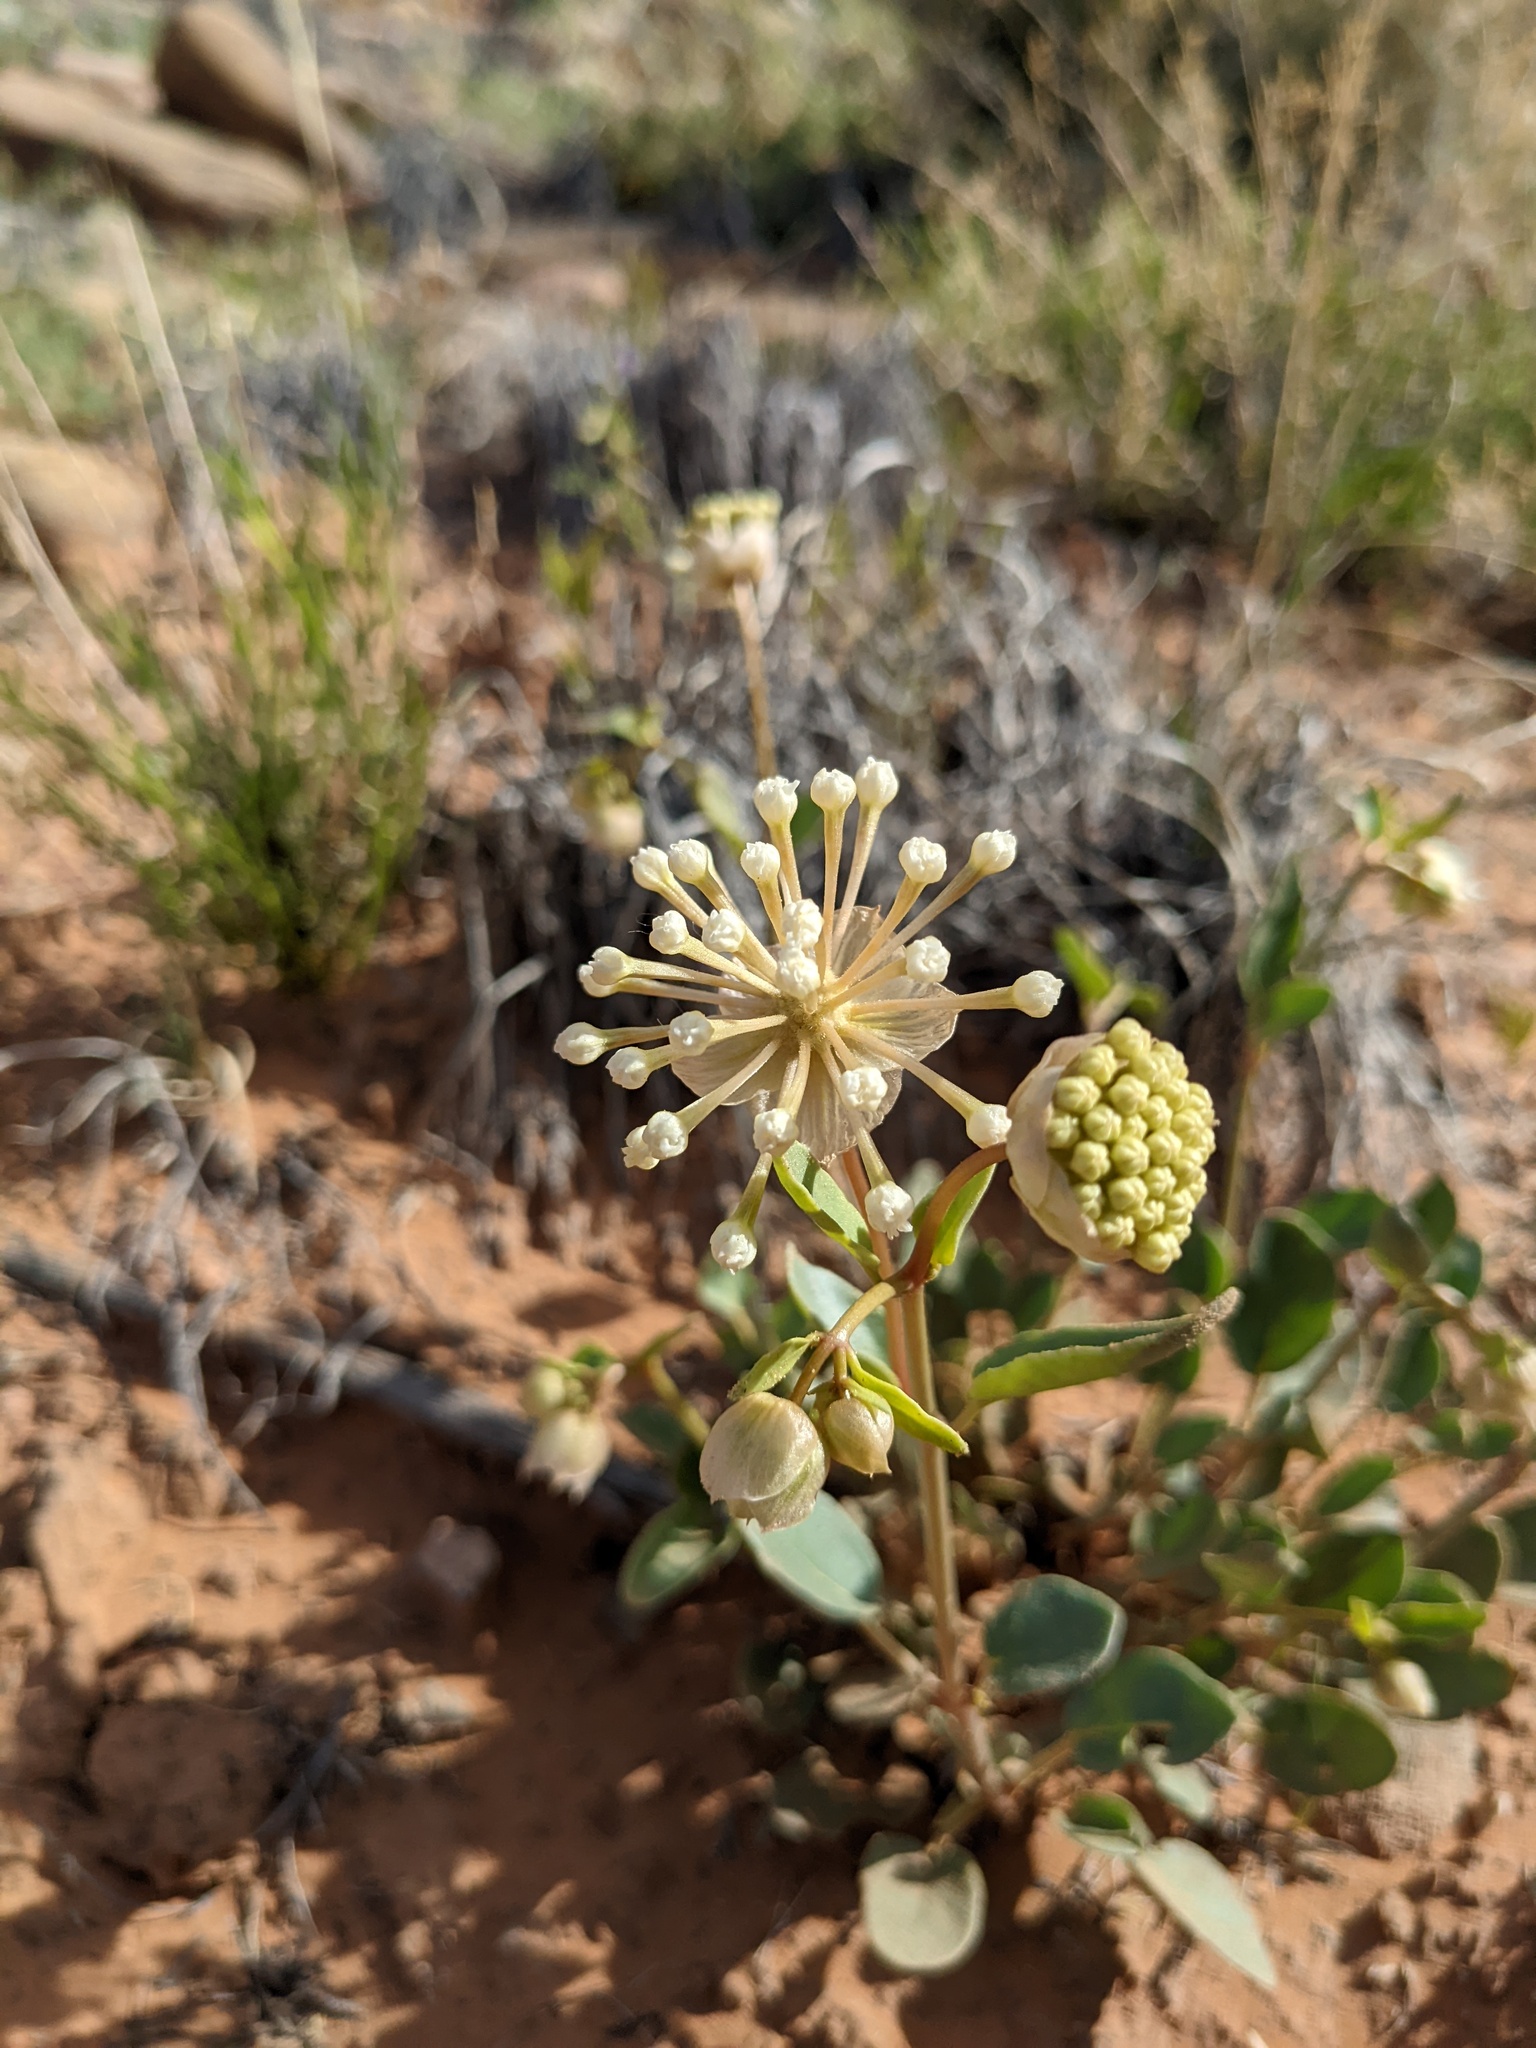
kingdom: Plantae
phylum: Tracheophyta
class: Magnoliopsida
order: Caryophyllales
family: Nyctaginaceae
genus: Abronia
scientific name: Abronia elliptica
